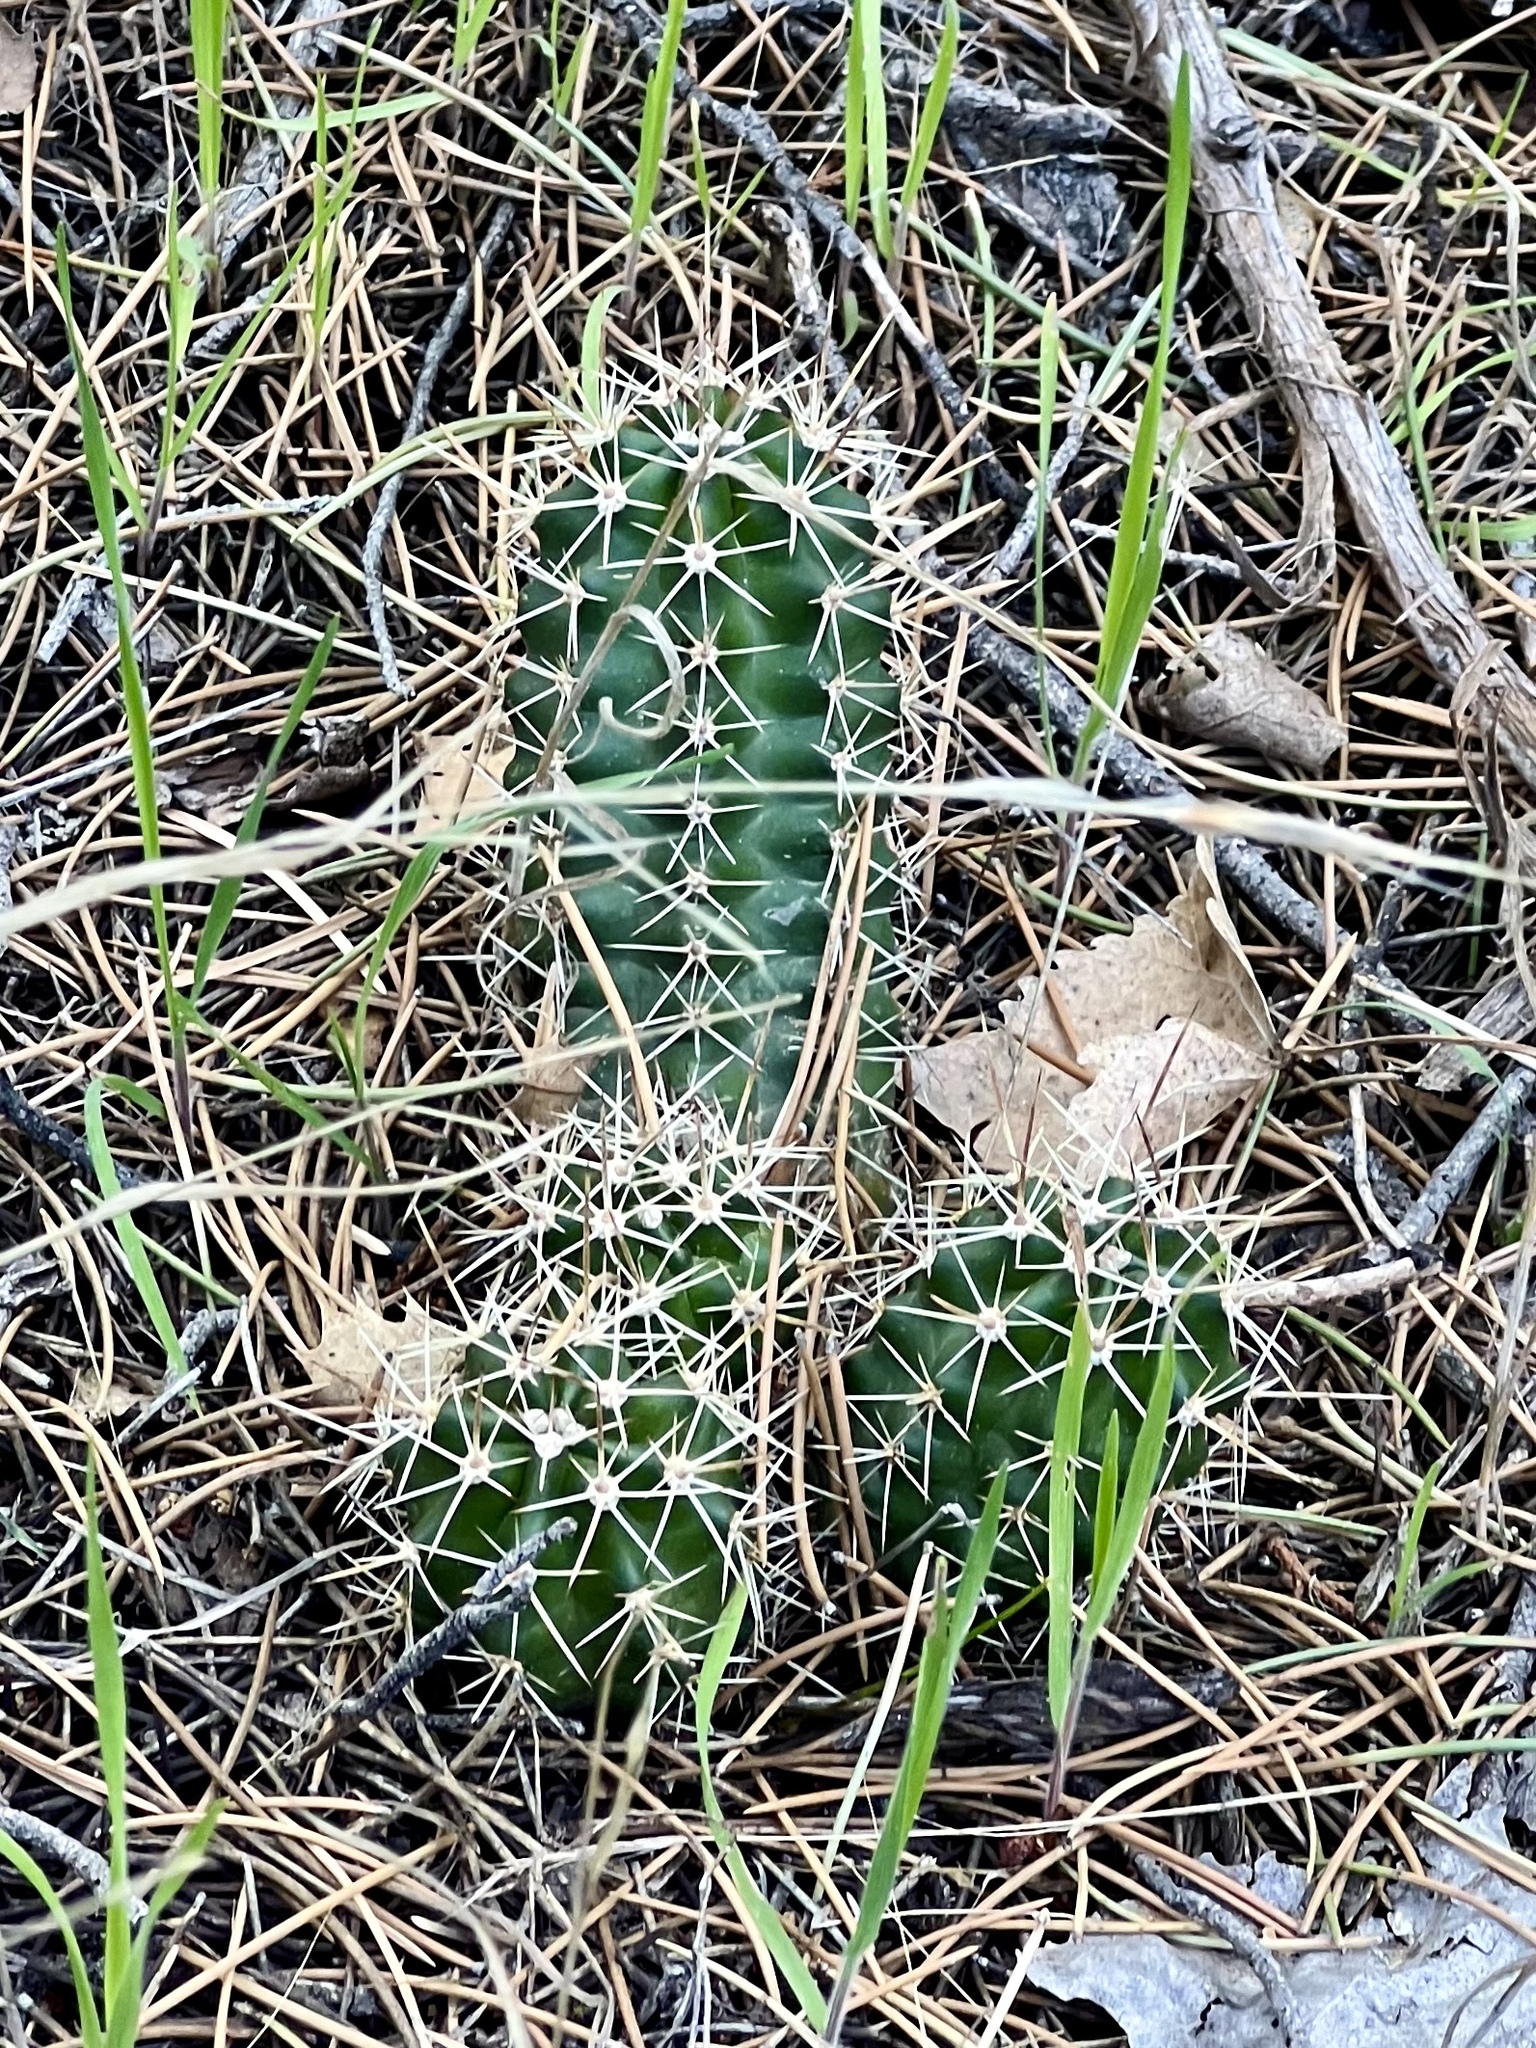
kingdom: Plantae
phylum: Tracheophyta
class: Magnoliopsida
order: Caryophyllales
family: Cactaceae
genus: Echinocereus
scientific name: Echinocereus triglochidiatus
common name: Claretcup hedgehog
